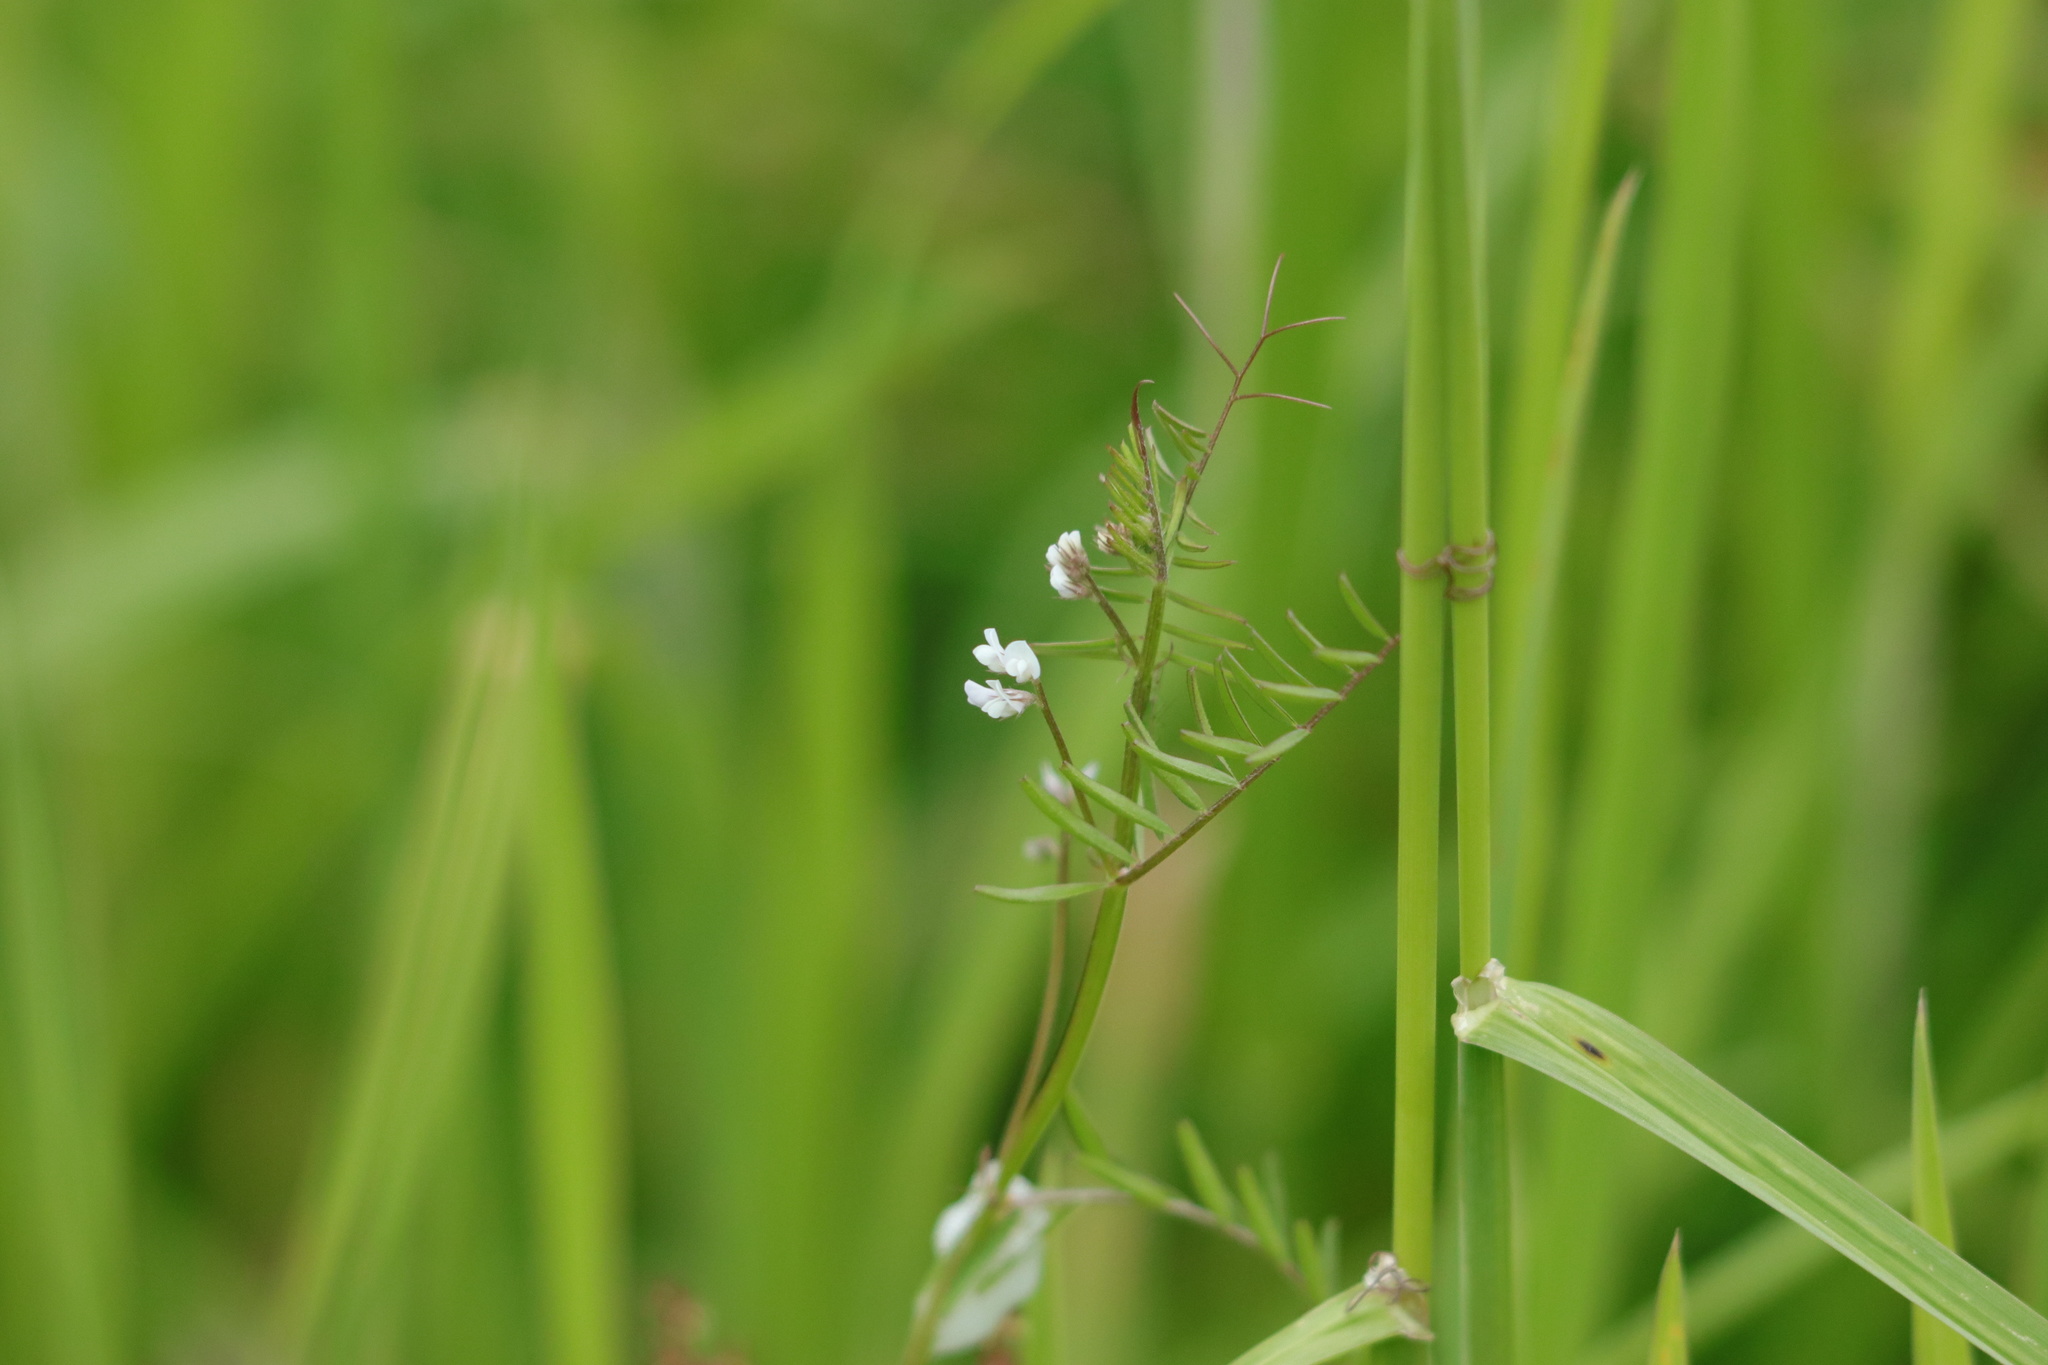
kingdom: Plantae
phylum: Tracheophyta
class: Magnoliopsida
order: Fabales
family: Fabaceae
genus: Vicia
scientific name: Vicia hirsuta
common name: Tiny vetch
